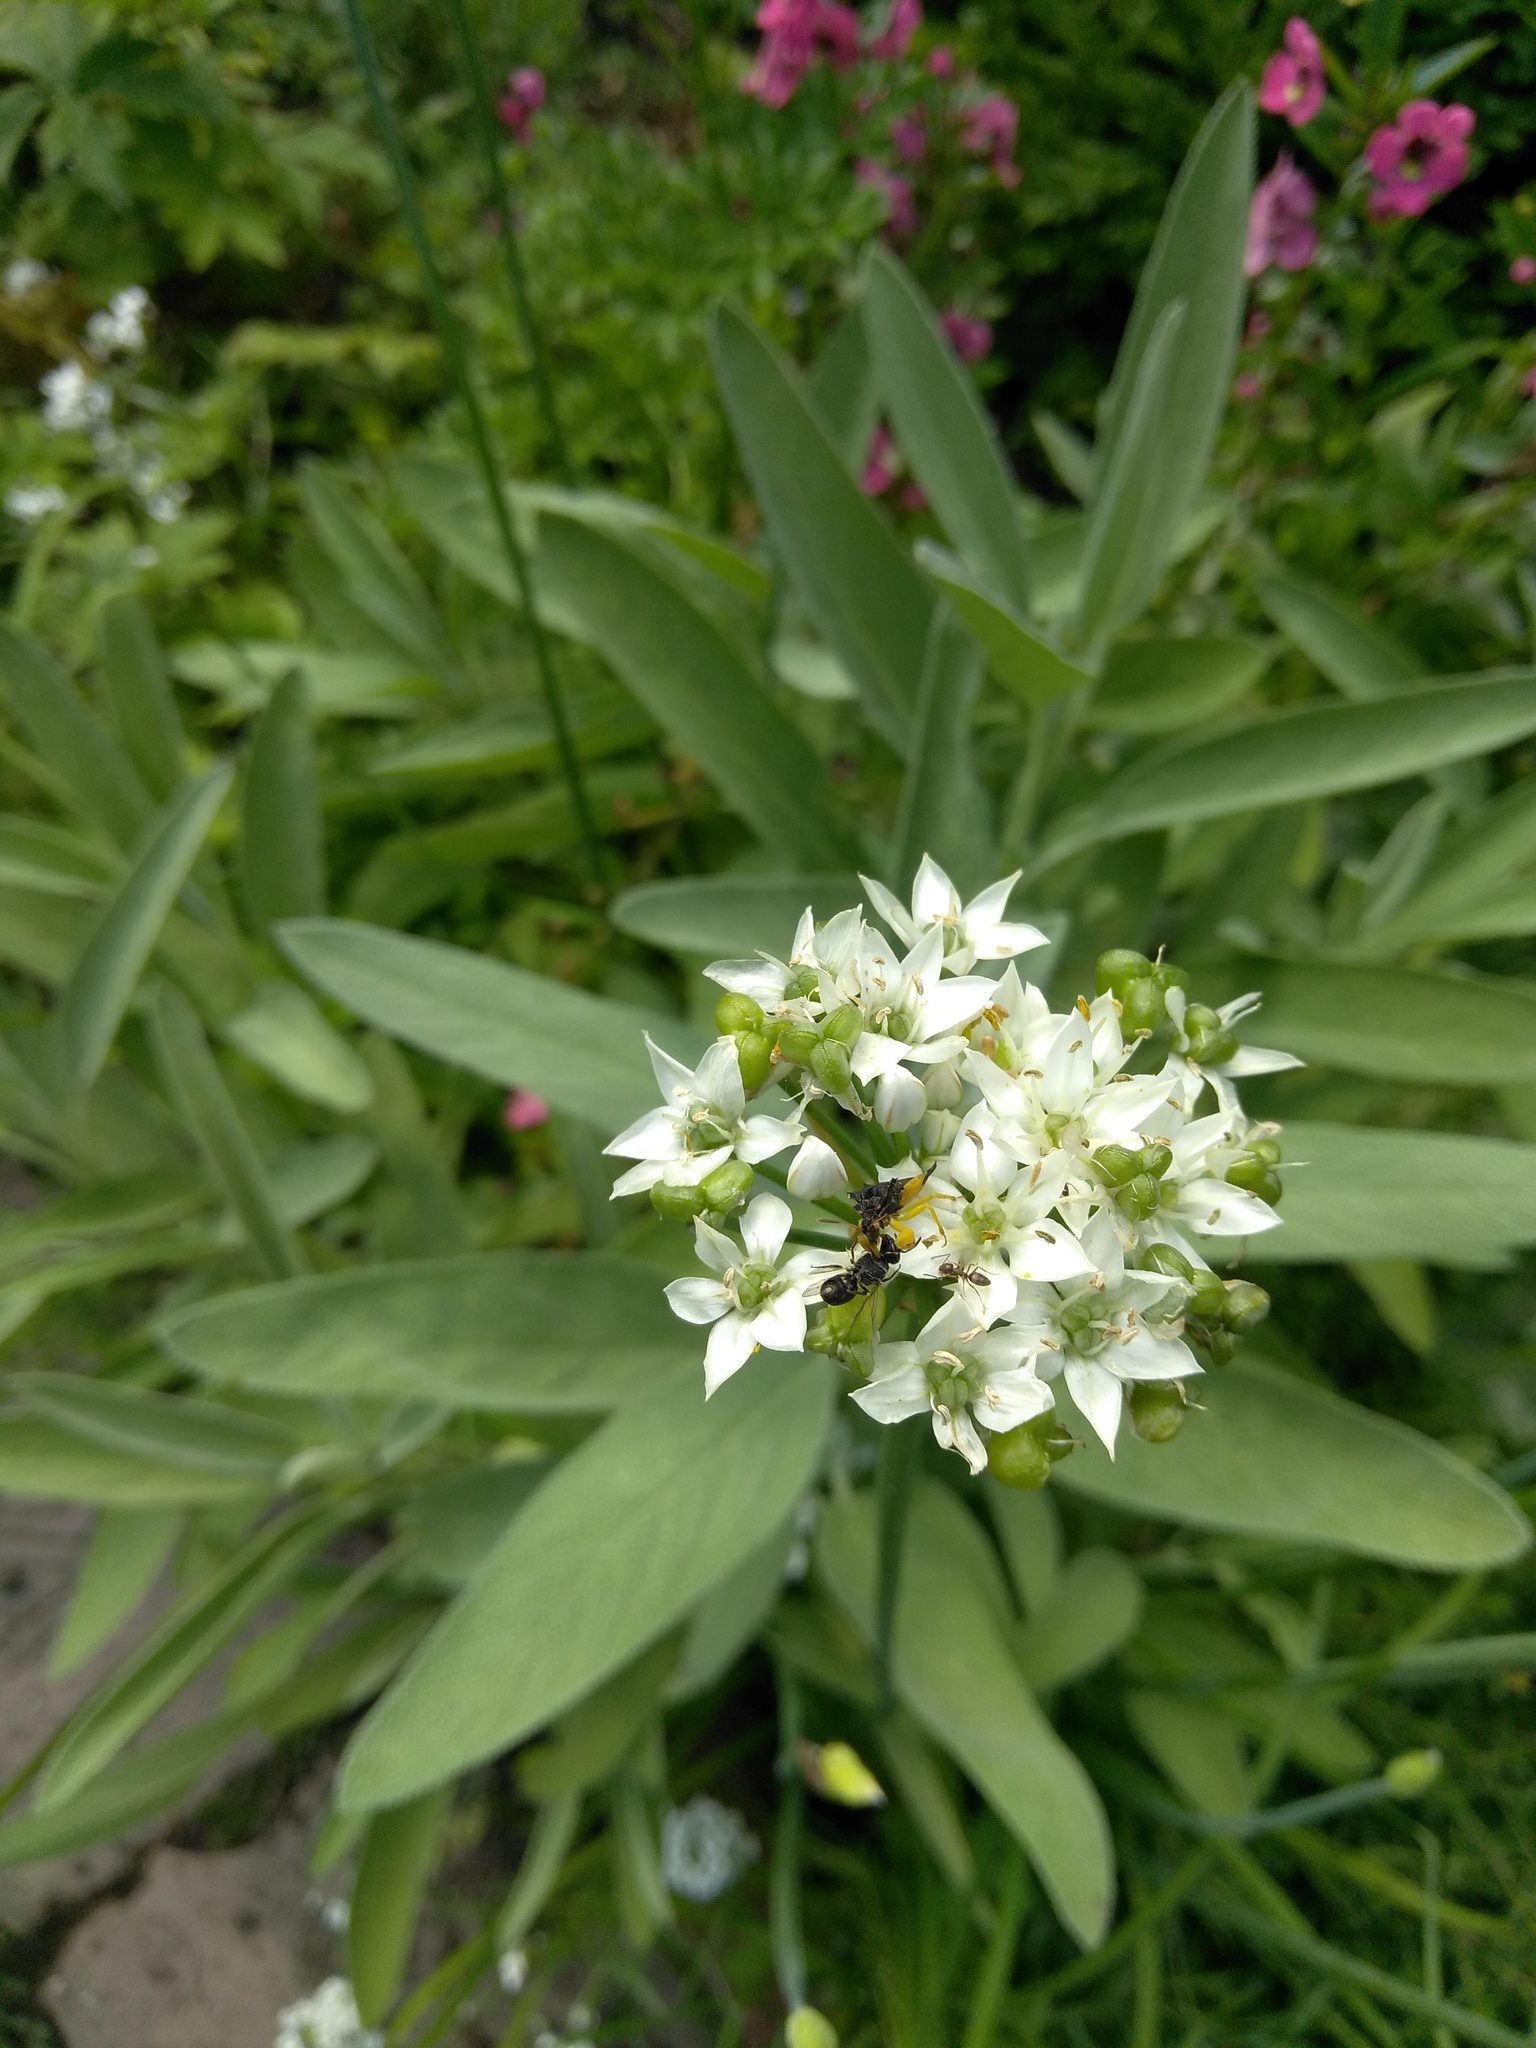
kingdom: Animalia
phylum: Arthropoda
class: Insecta
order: Hemiptera
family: Reduviidae
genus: Phymata
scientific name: Phymata pennsylvanica
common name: Pennsylvania ambush bug
